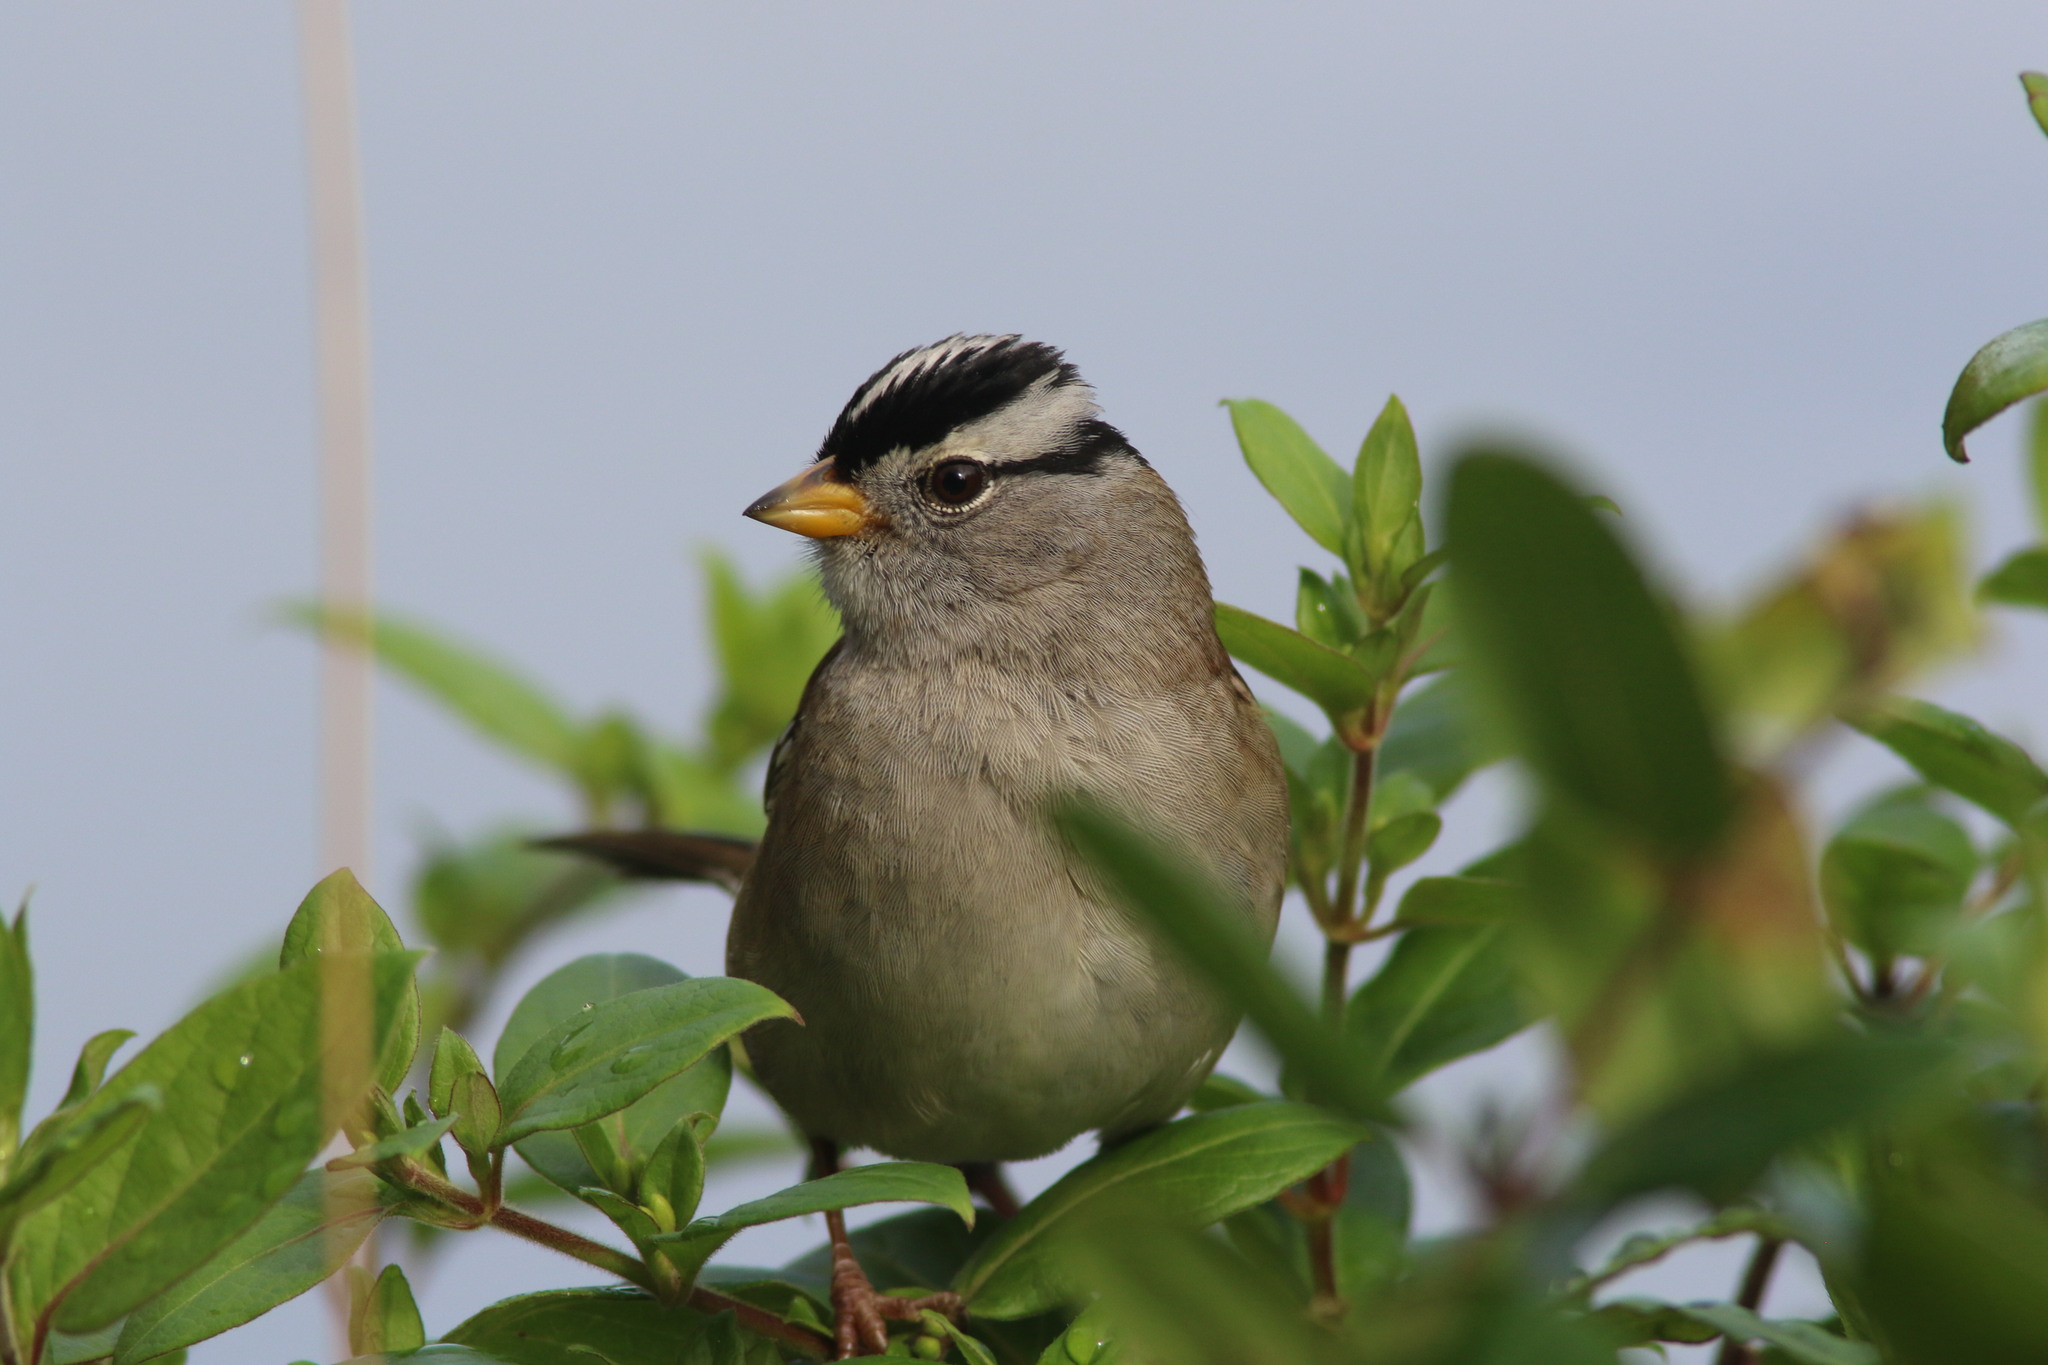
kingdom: Animalia
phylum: Chordata
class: Aves
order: Passeriformes
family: Passerellidae
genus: Zonotrichia
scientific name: Zonotrichia leucophrys
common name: White-crowned sparrow
